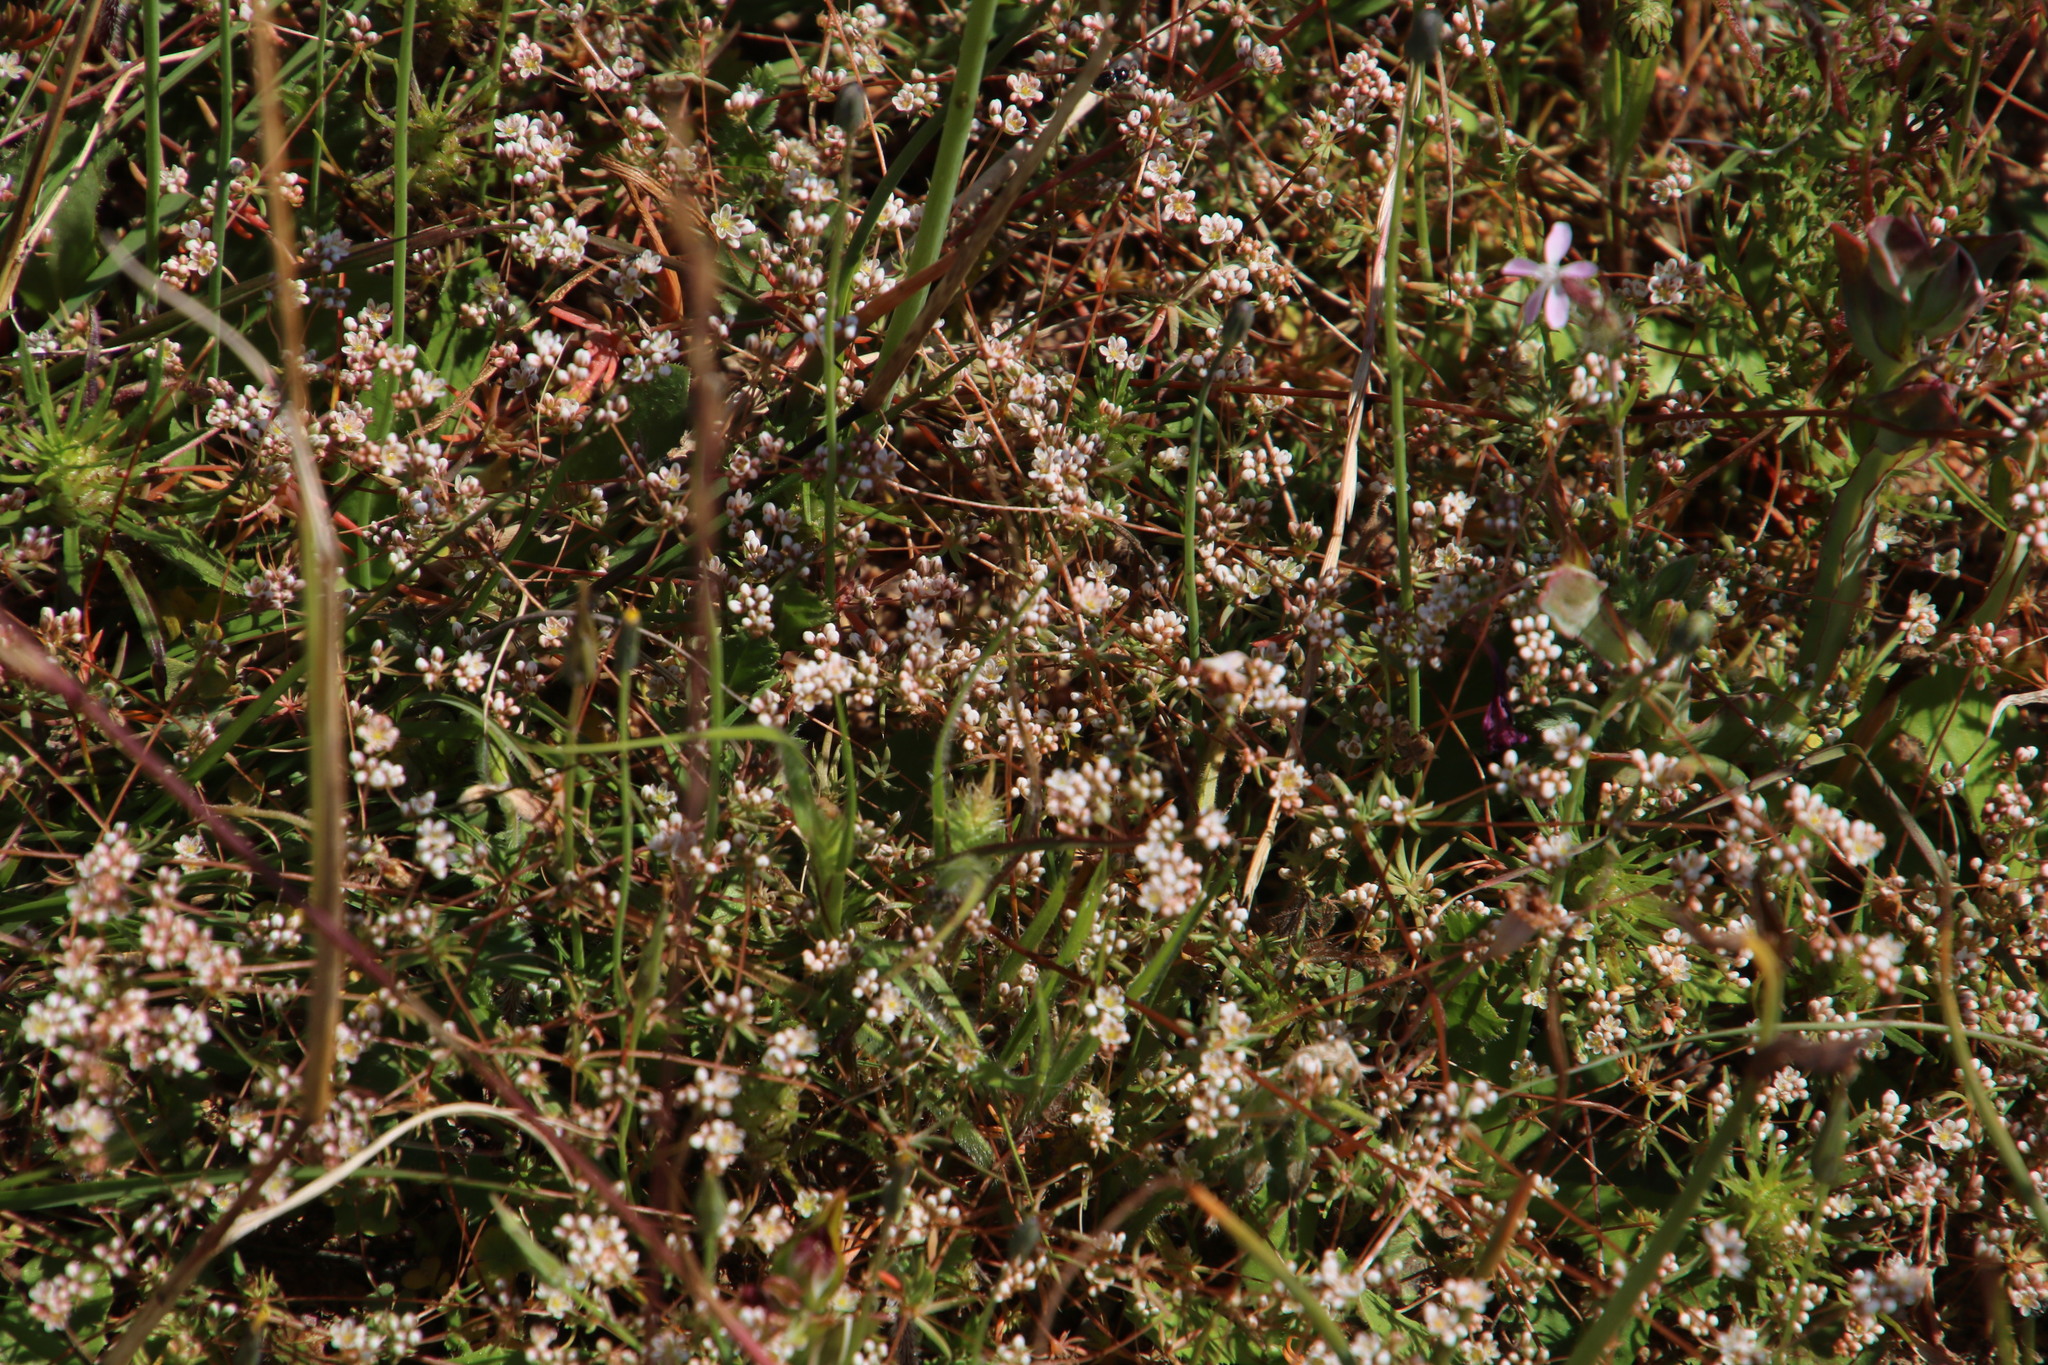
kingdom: Plantae
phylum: Tracheophyta
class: Magnoliopsida
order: Caryophyllales
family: Molluginaceae
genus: Adenogramma
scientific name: Adenogramma glomerata
